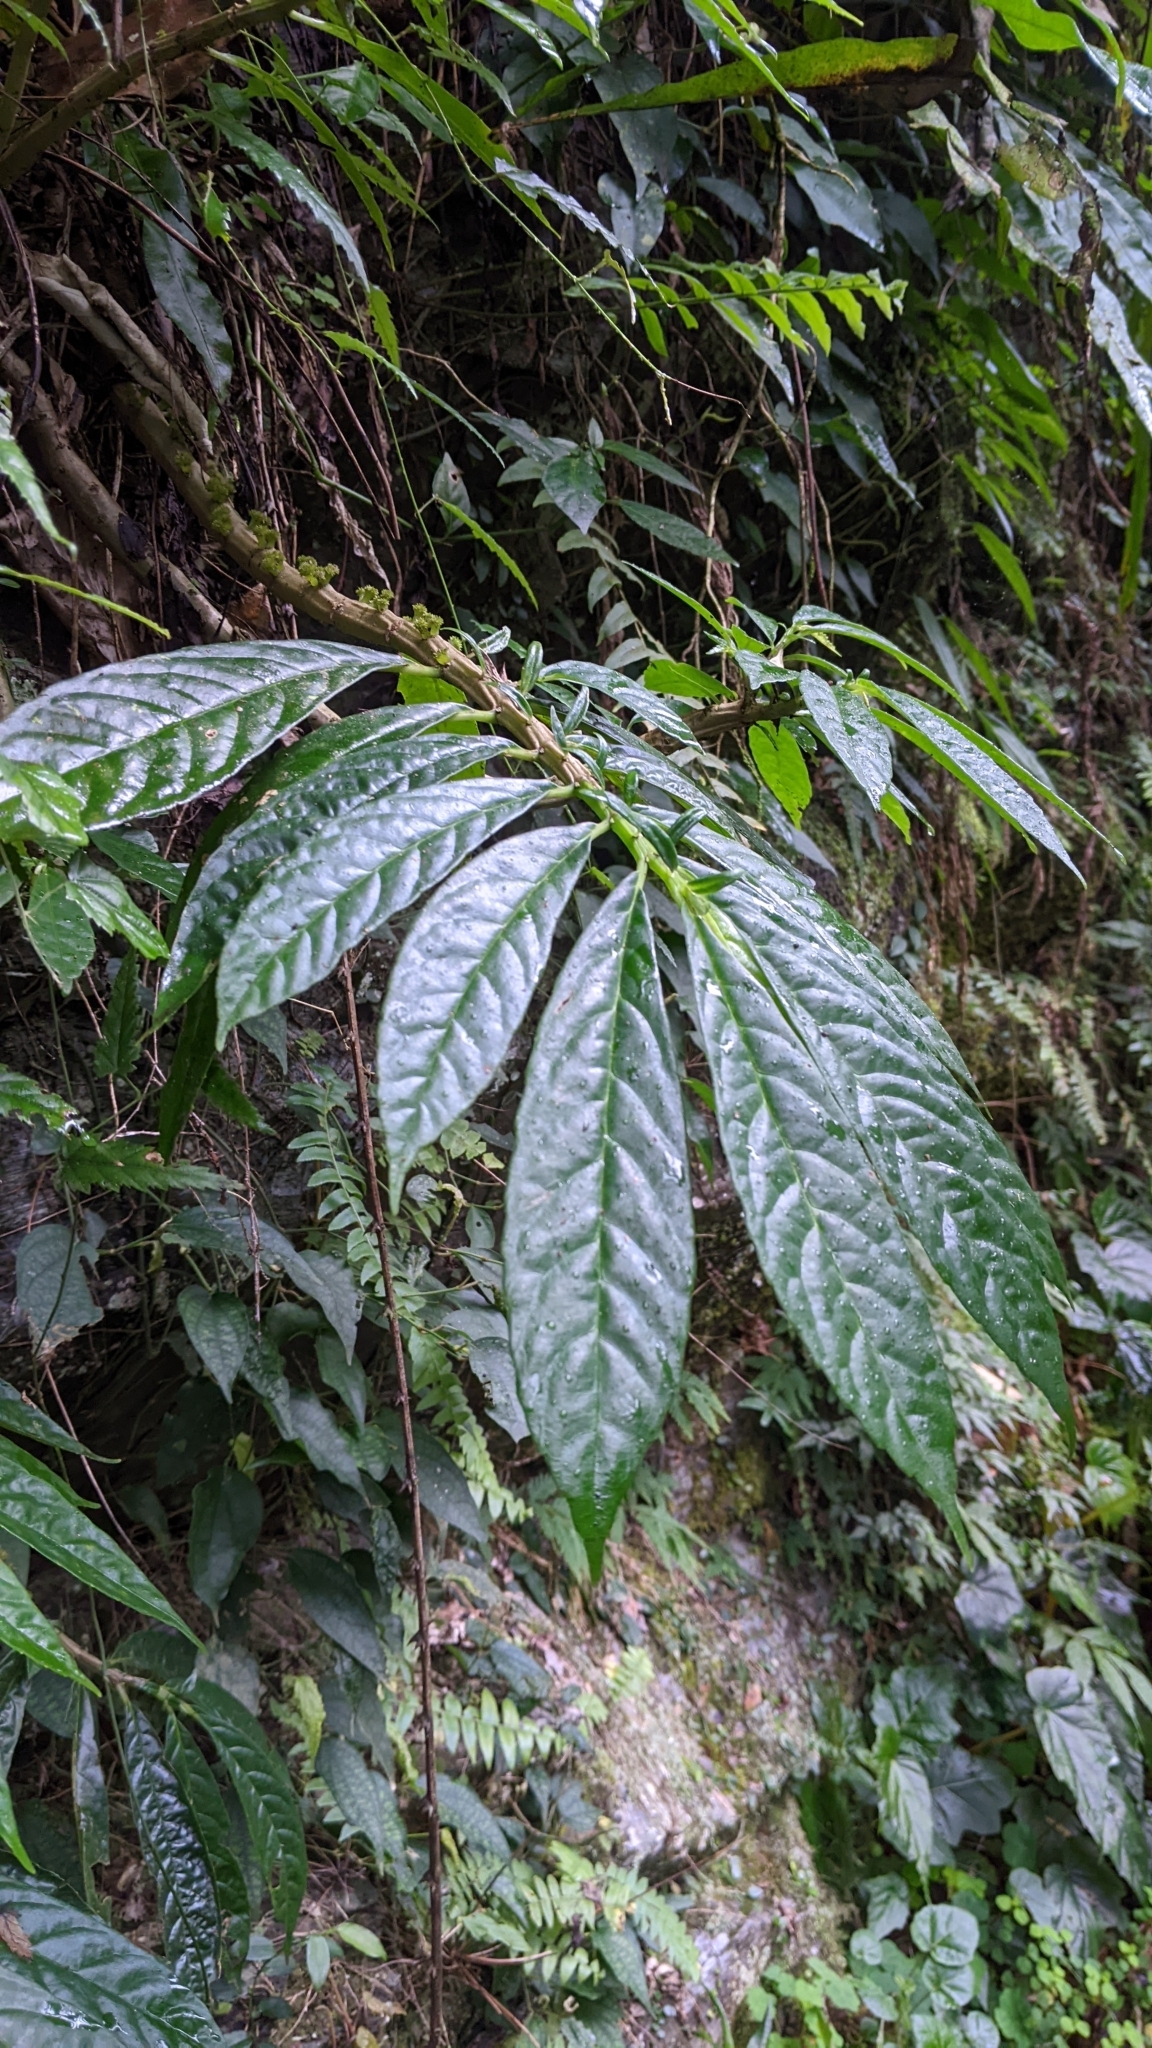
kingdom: Plantae
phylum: Tracheophyta
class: Magnoliopsida
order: Rosales
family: Urticaceae
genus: Procris
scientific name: Procris
